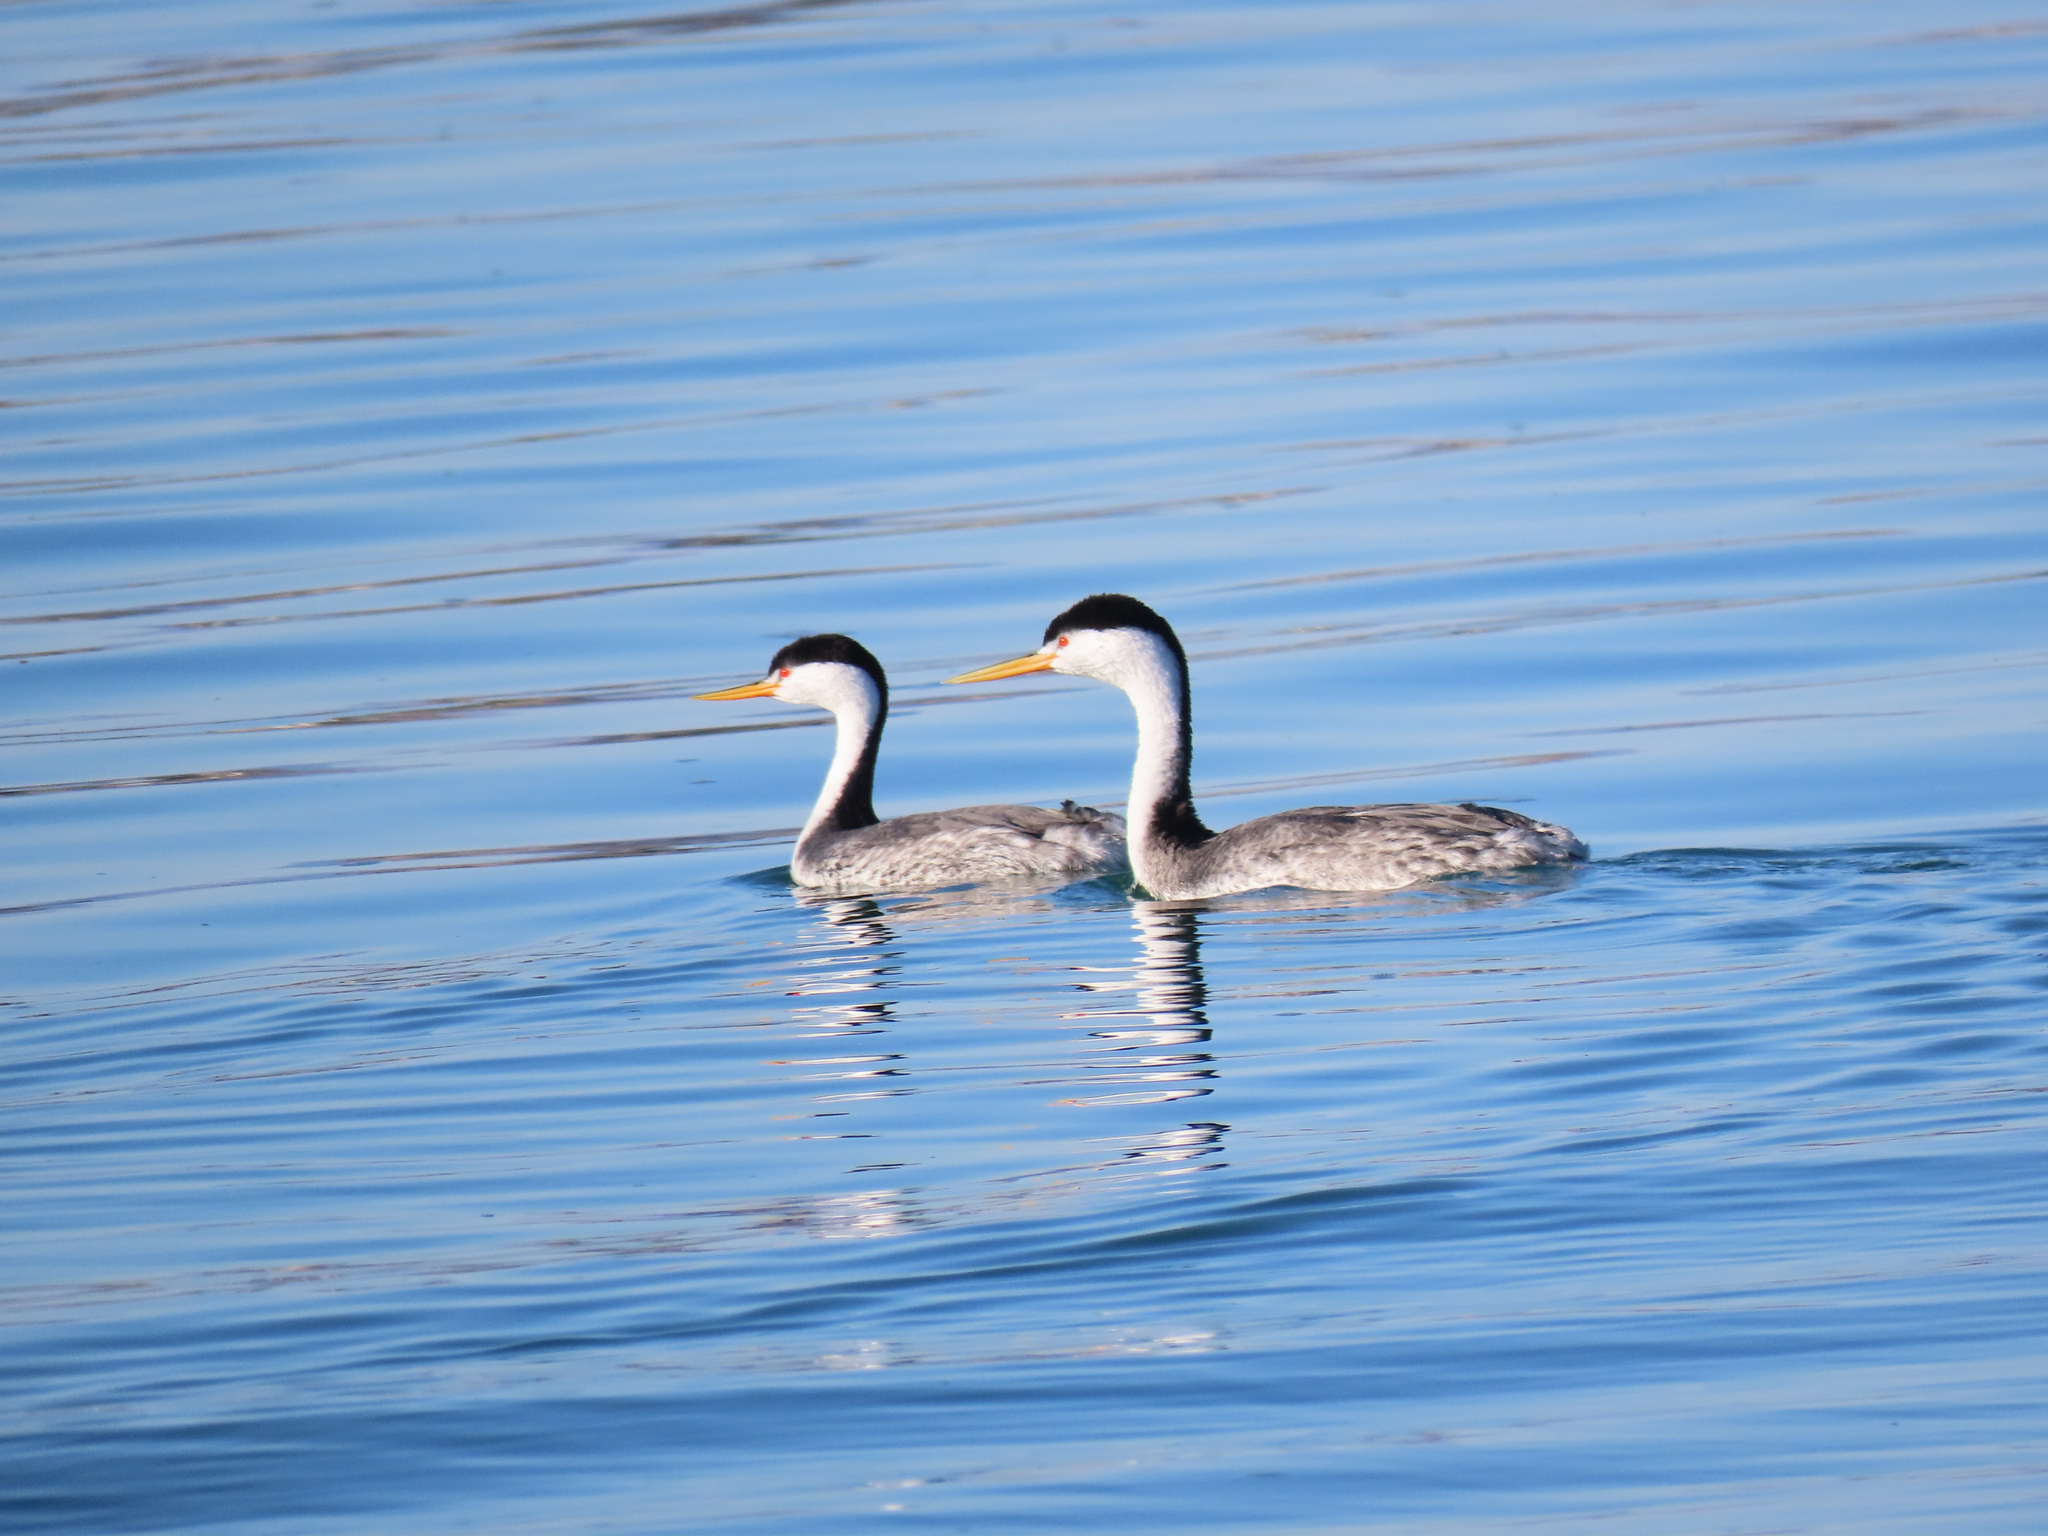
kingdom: Animalia
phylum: Chordata
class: Aves
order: Podicipediformes
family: Podicipedidae
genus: Aechmophorus
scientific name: Aechmophorus clarkii
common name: Clark's grebe
